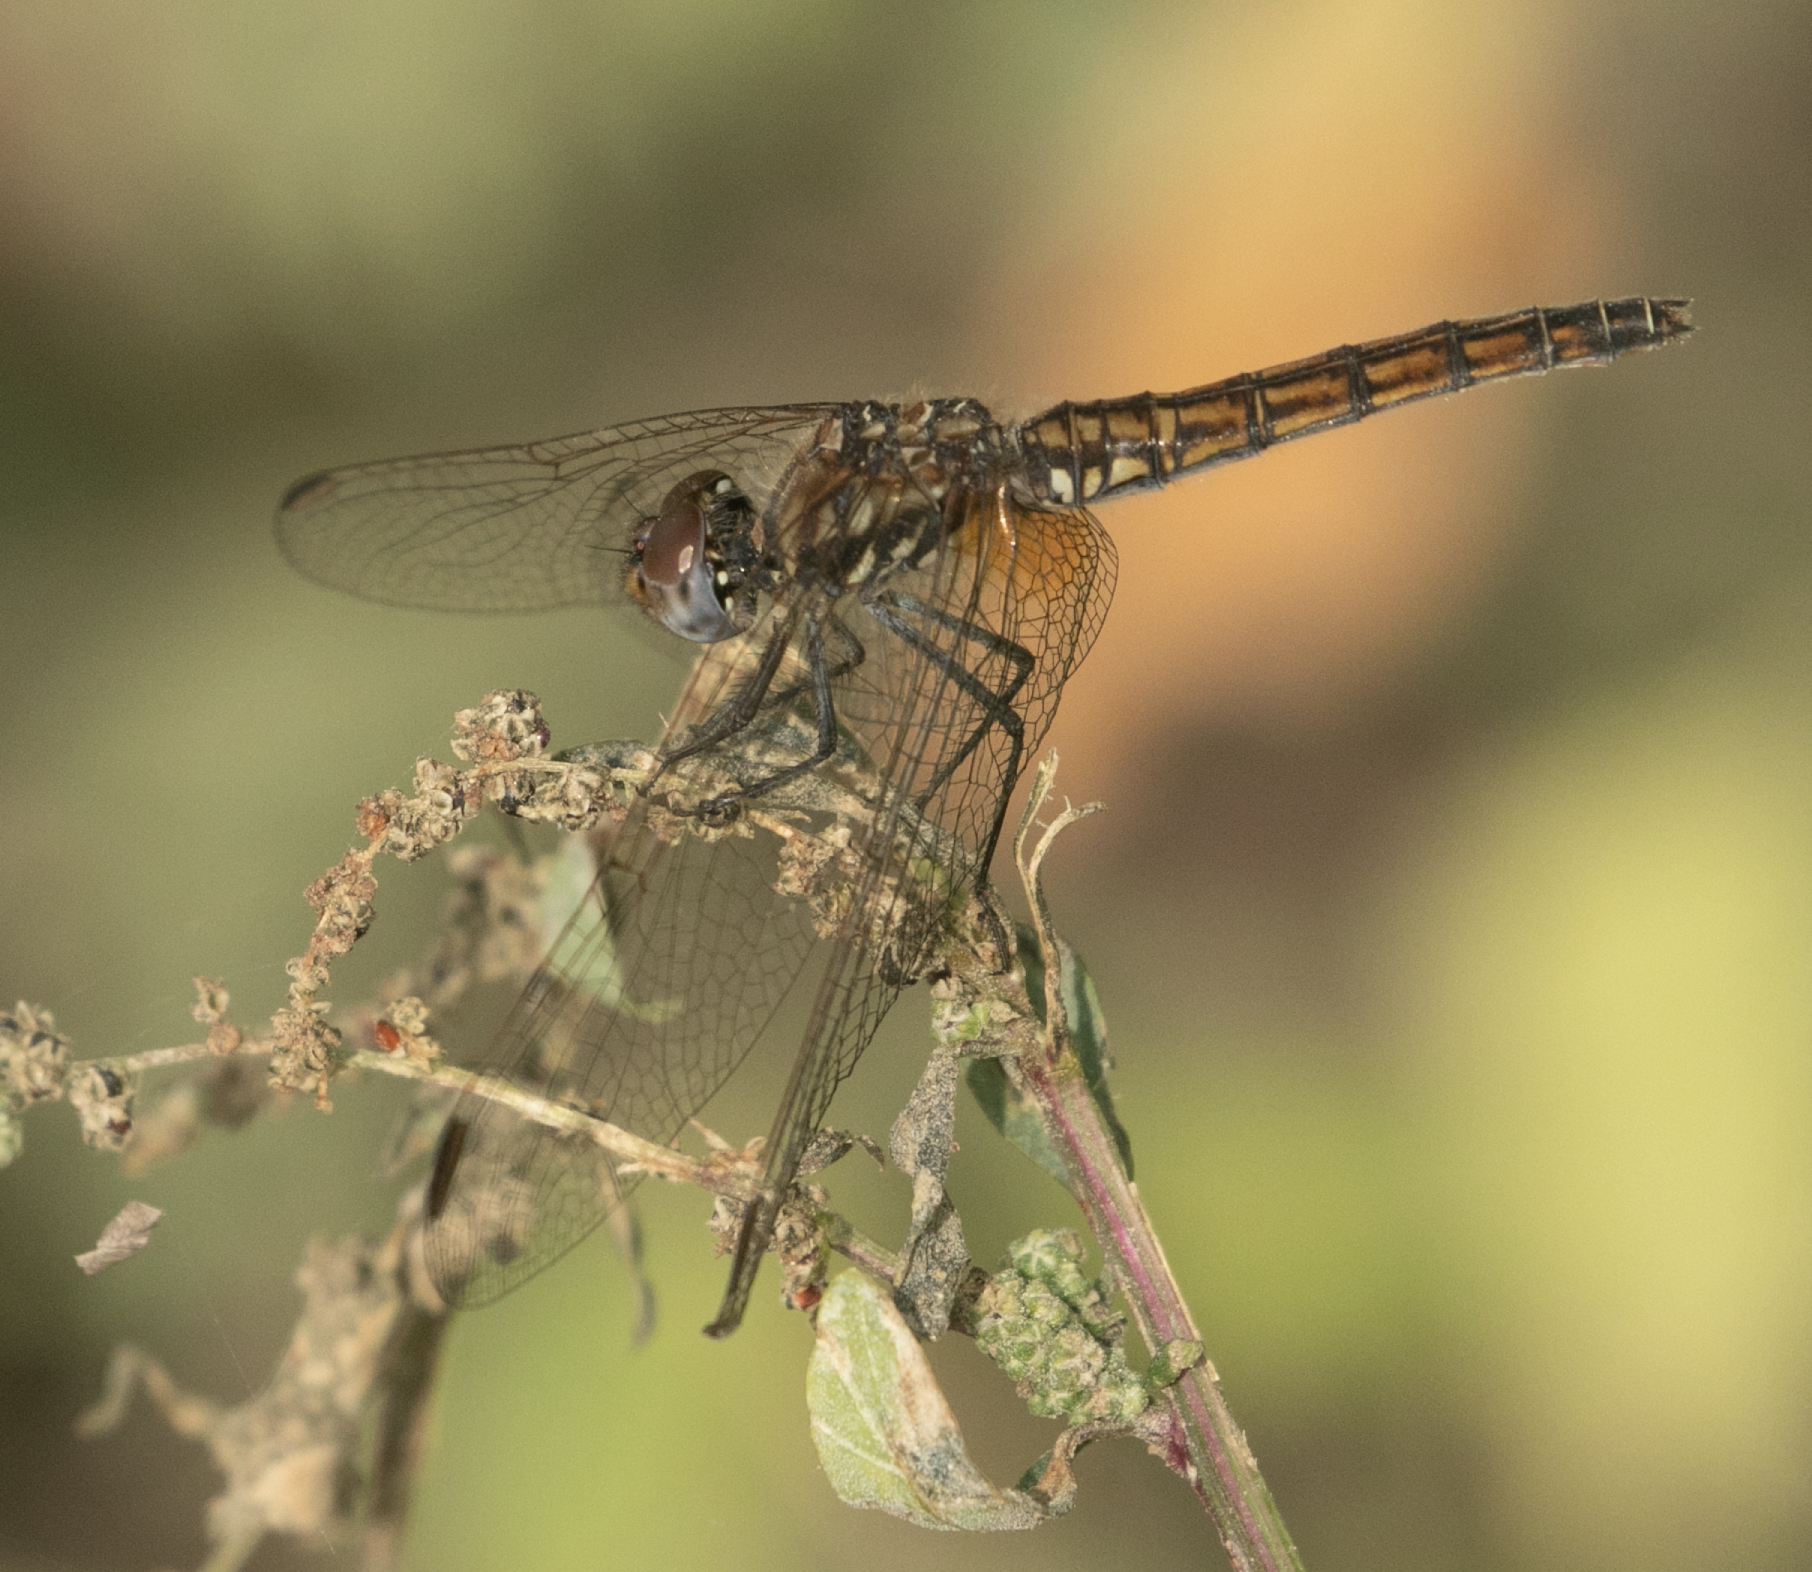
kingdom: Animalia
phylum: Arthropoda
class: Insecta
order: Odonata
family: Libellulidae
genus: Trithemis
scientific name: Trithemis annulata
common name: Violet dropwing
